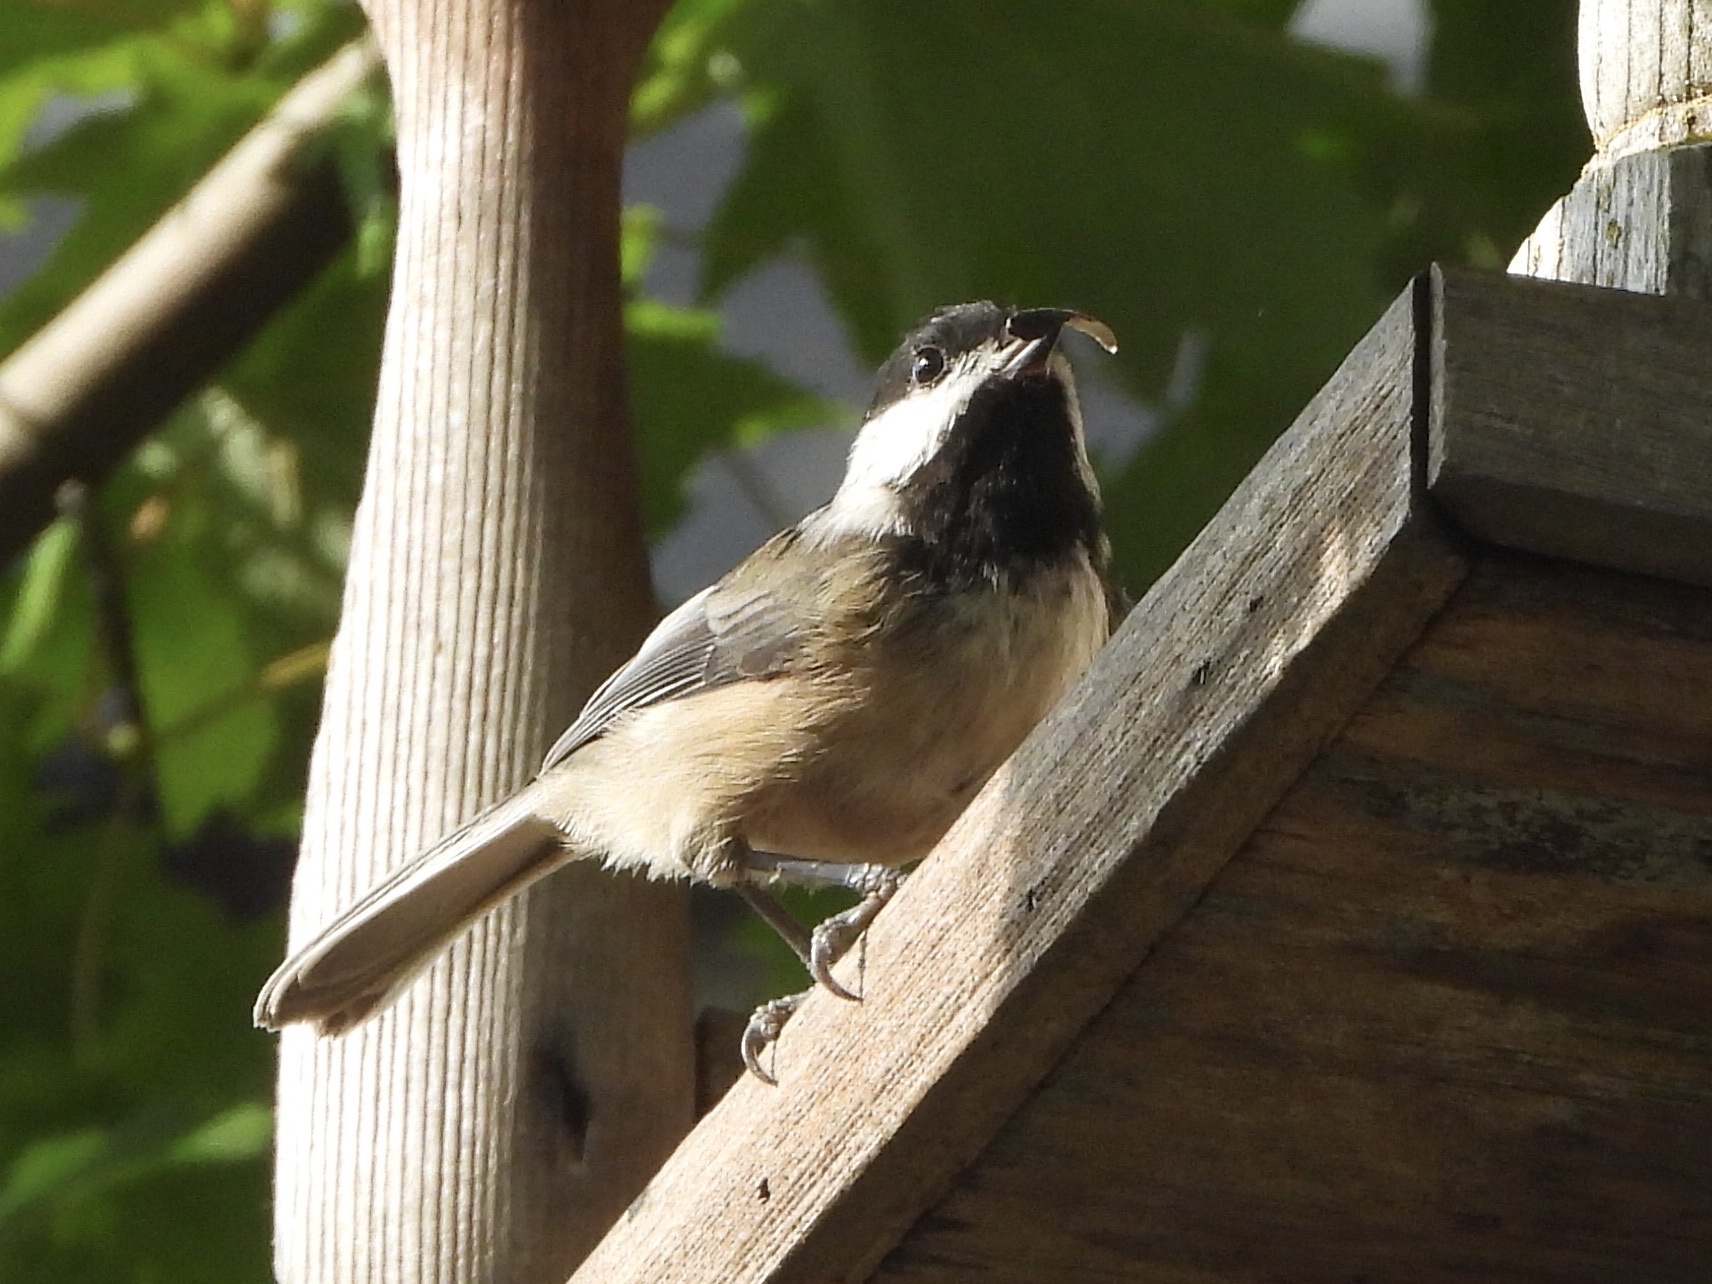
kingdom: Animalia
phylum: Chordata
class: Aves
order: Passeriformes
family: Paridae
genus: Poecile
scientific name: Poecile atricapillus
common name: Black-capped chickadee
